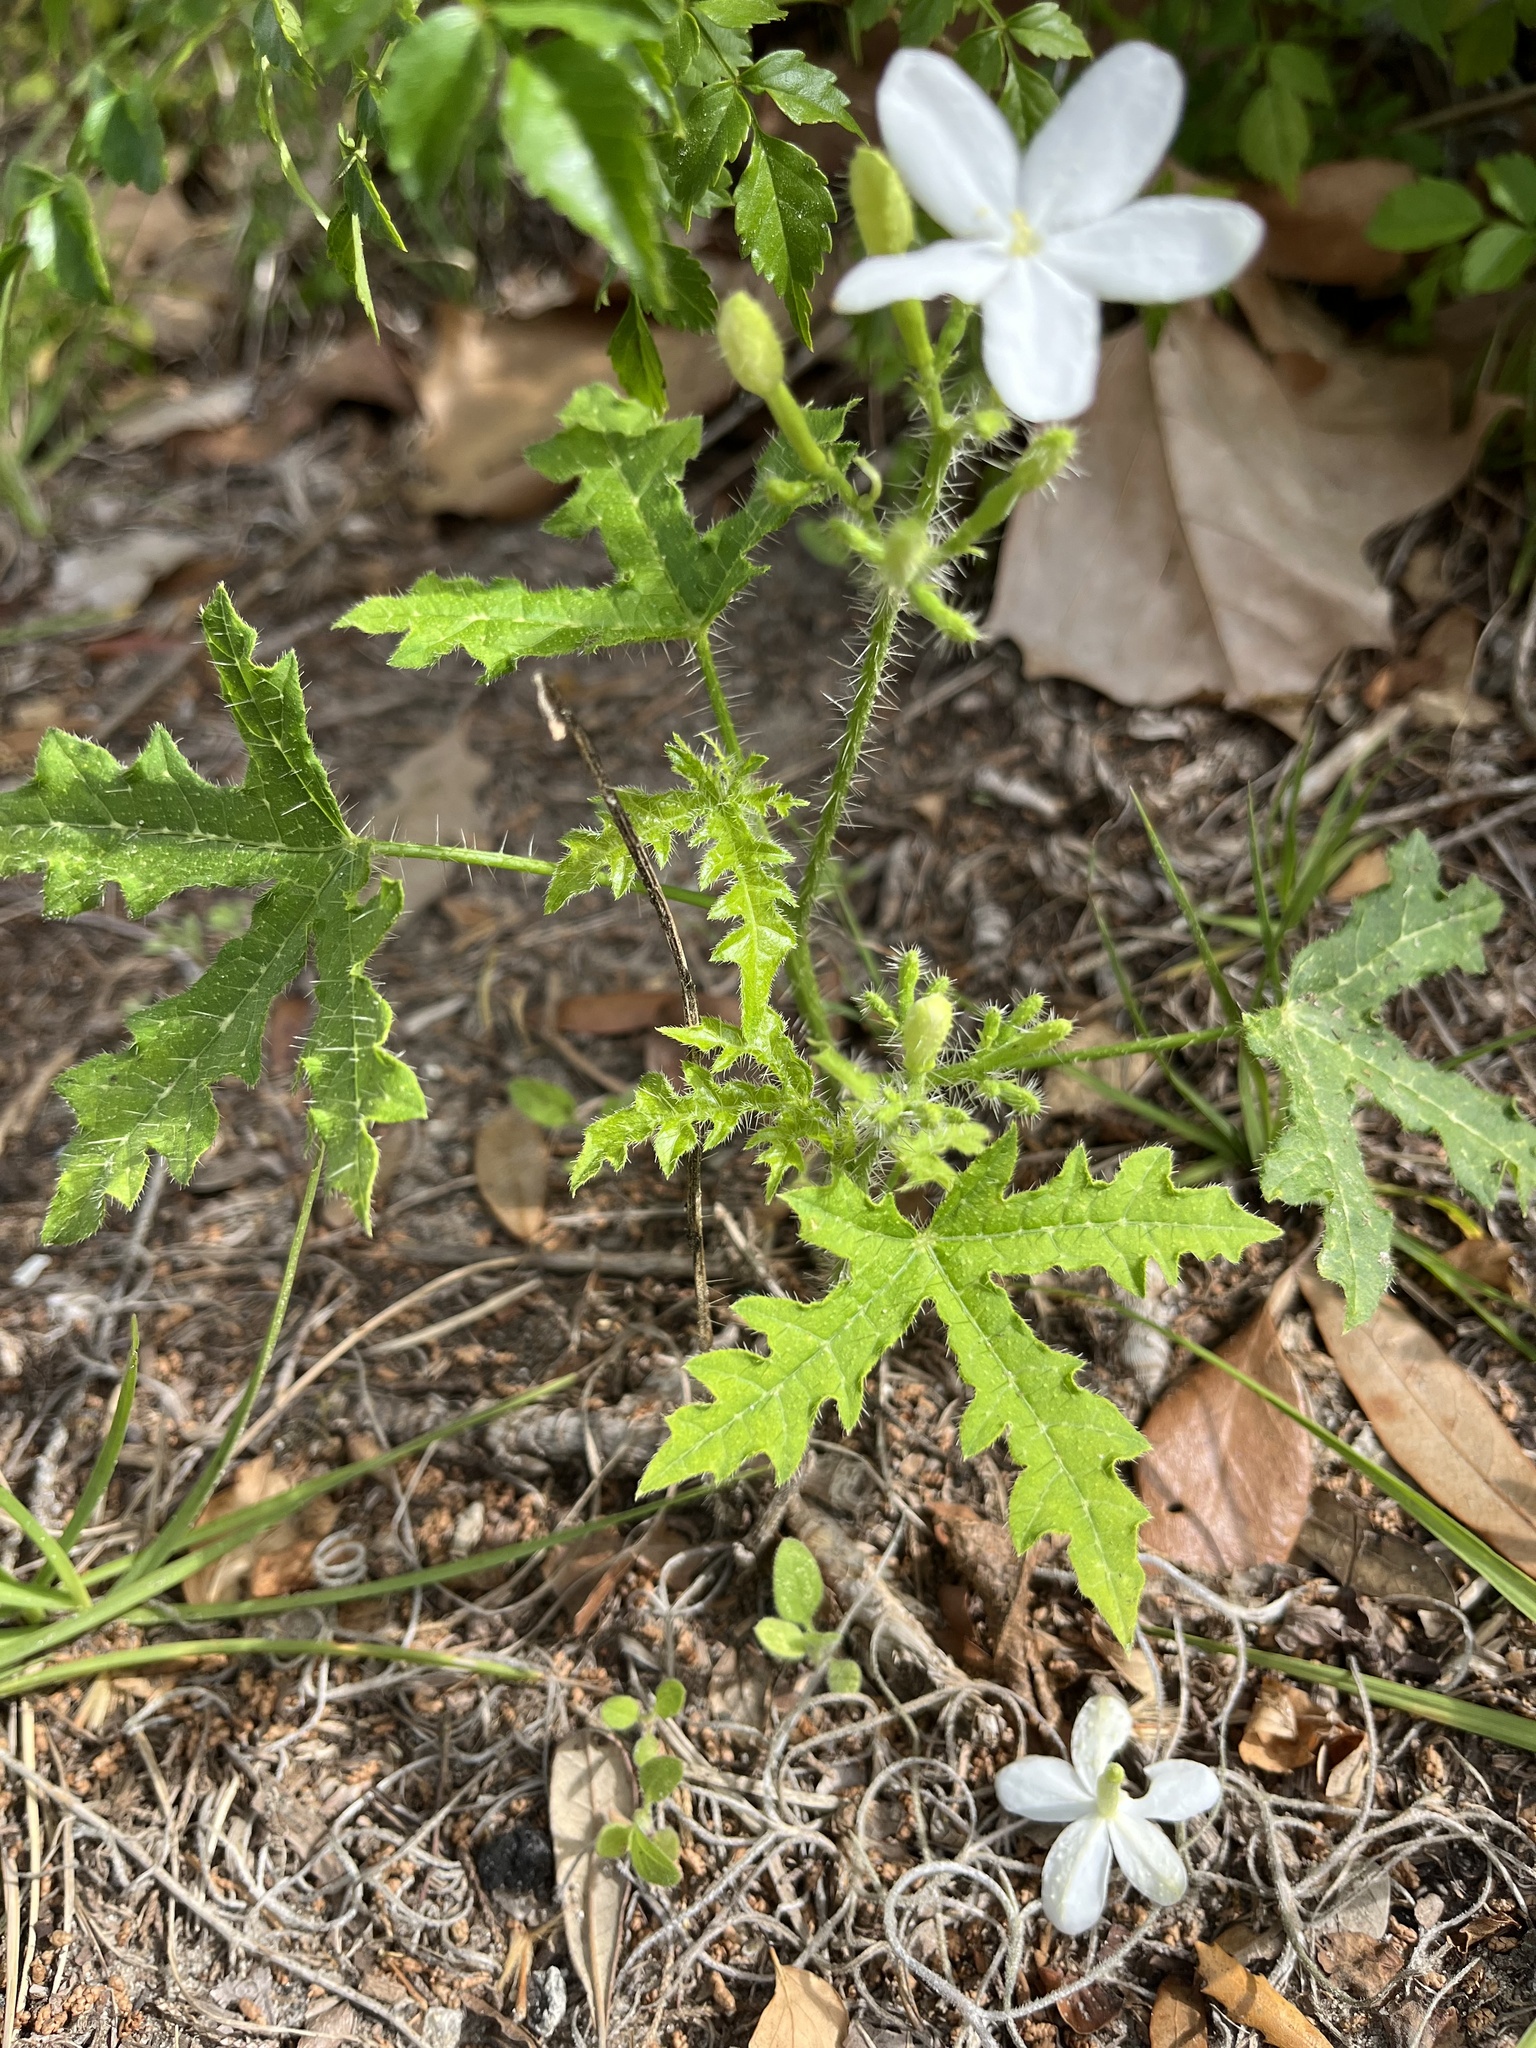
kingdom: Plantae
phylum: Tracheophyta
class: Magnoliopsida
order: Malpighiales
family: Euphorbiaceae
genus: Cnidoscolus
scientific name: Cnidoscolus stimulosus
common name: Bull-nettle
